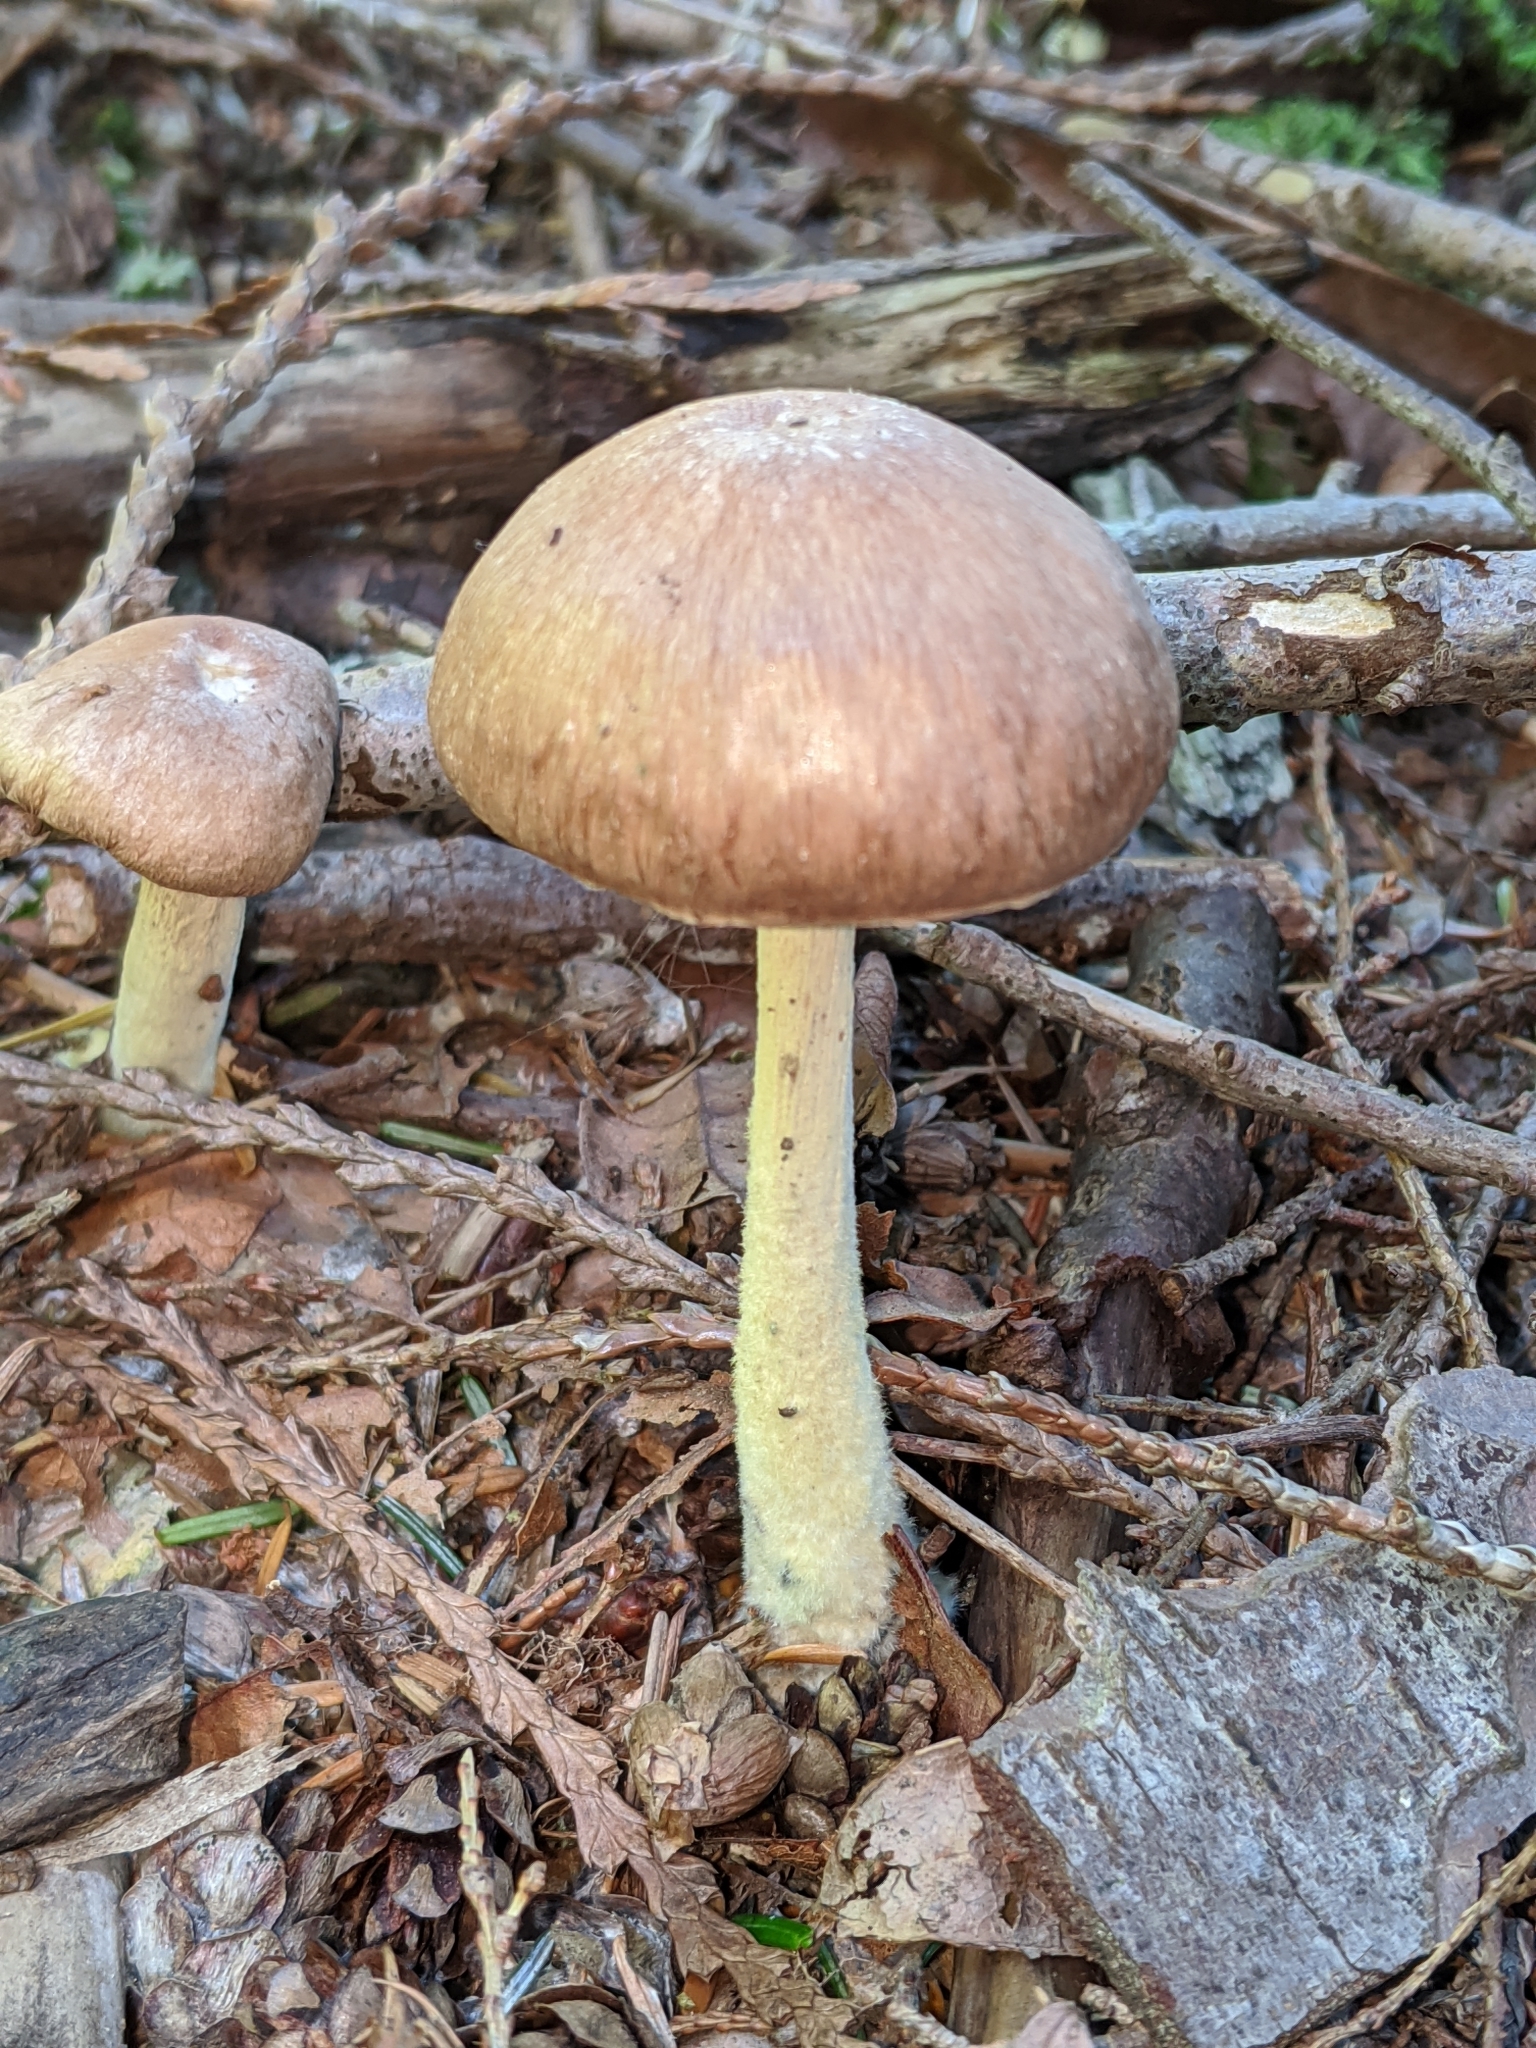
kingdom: Fungi
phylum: Basidiomycota
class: Agaricomycetes
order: Agaricales
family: Omphalotaceae
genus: Collybiopsis
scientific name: Collybiopsis peronata
